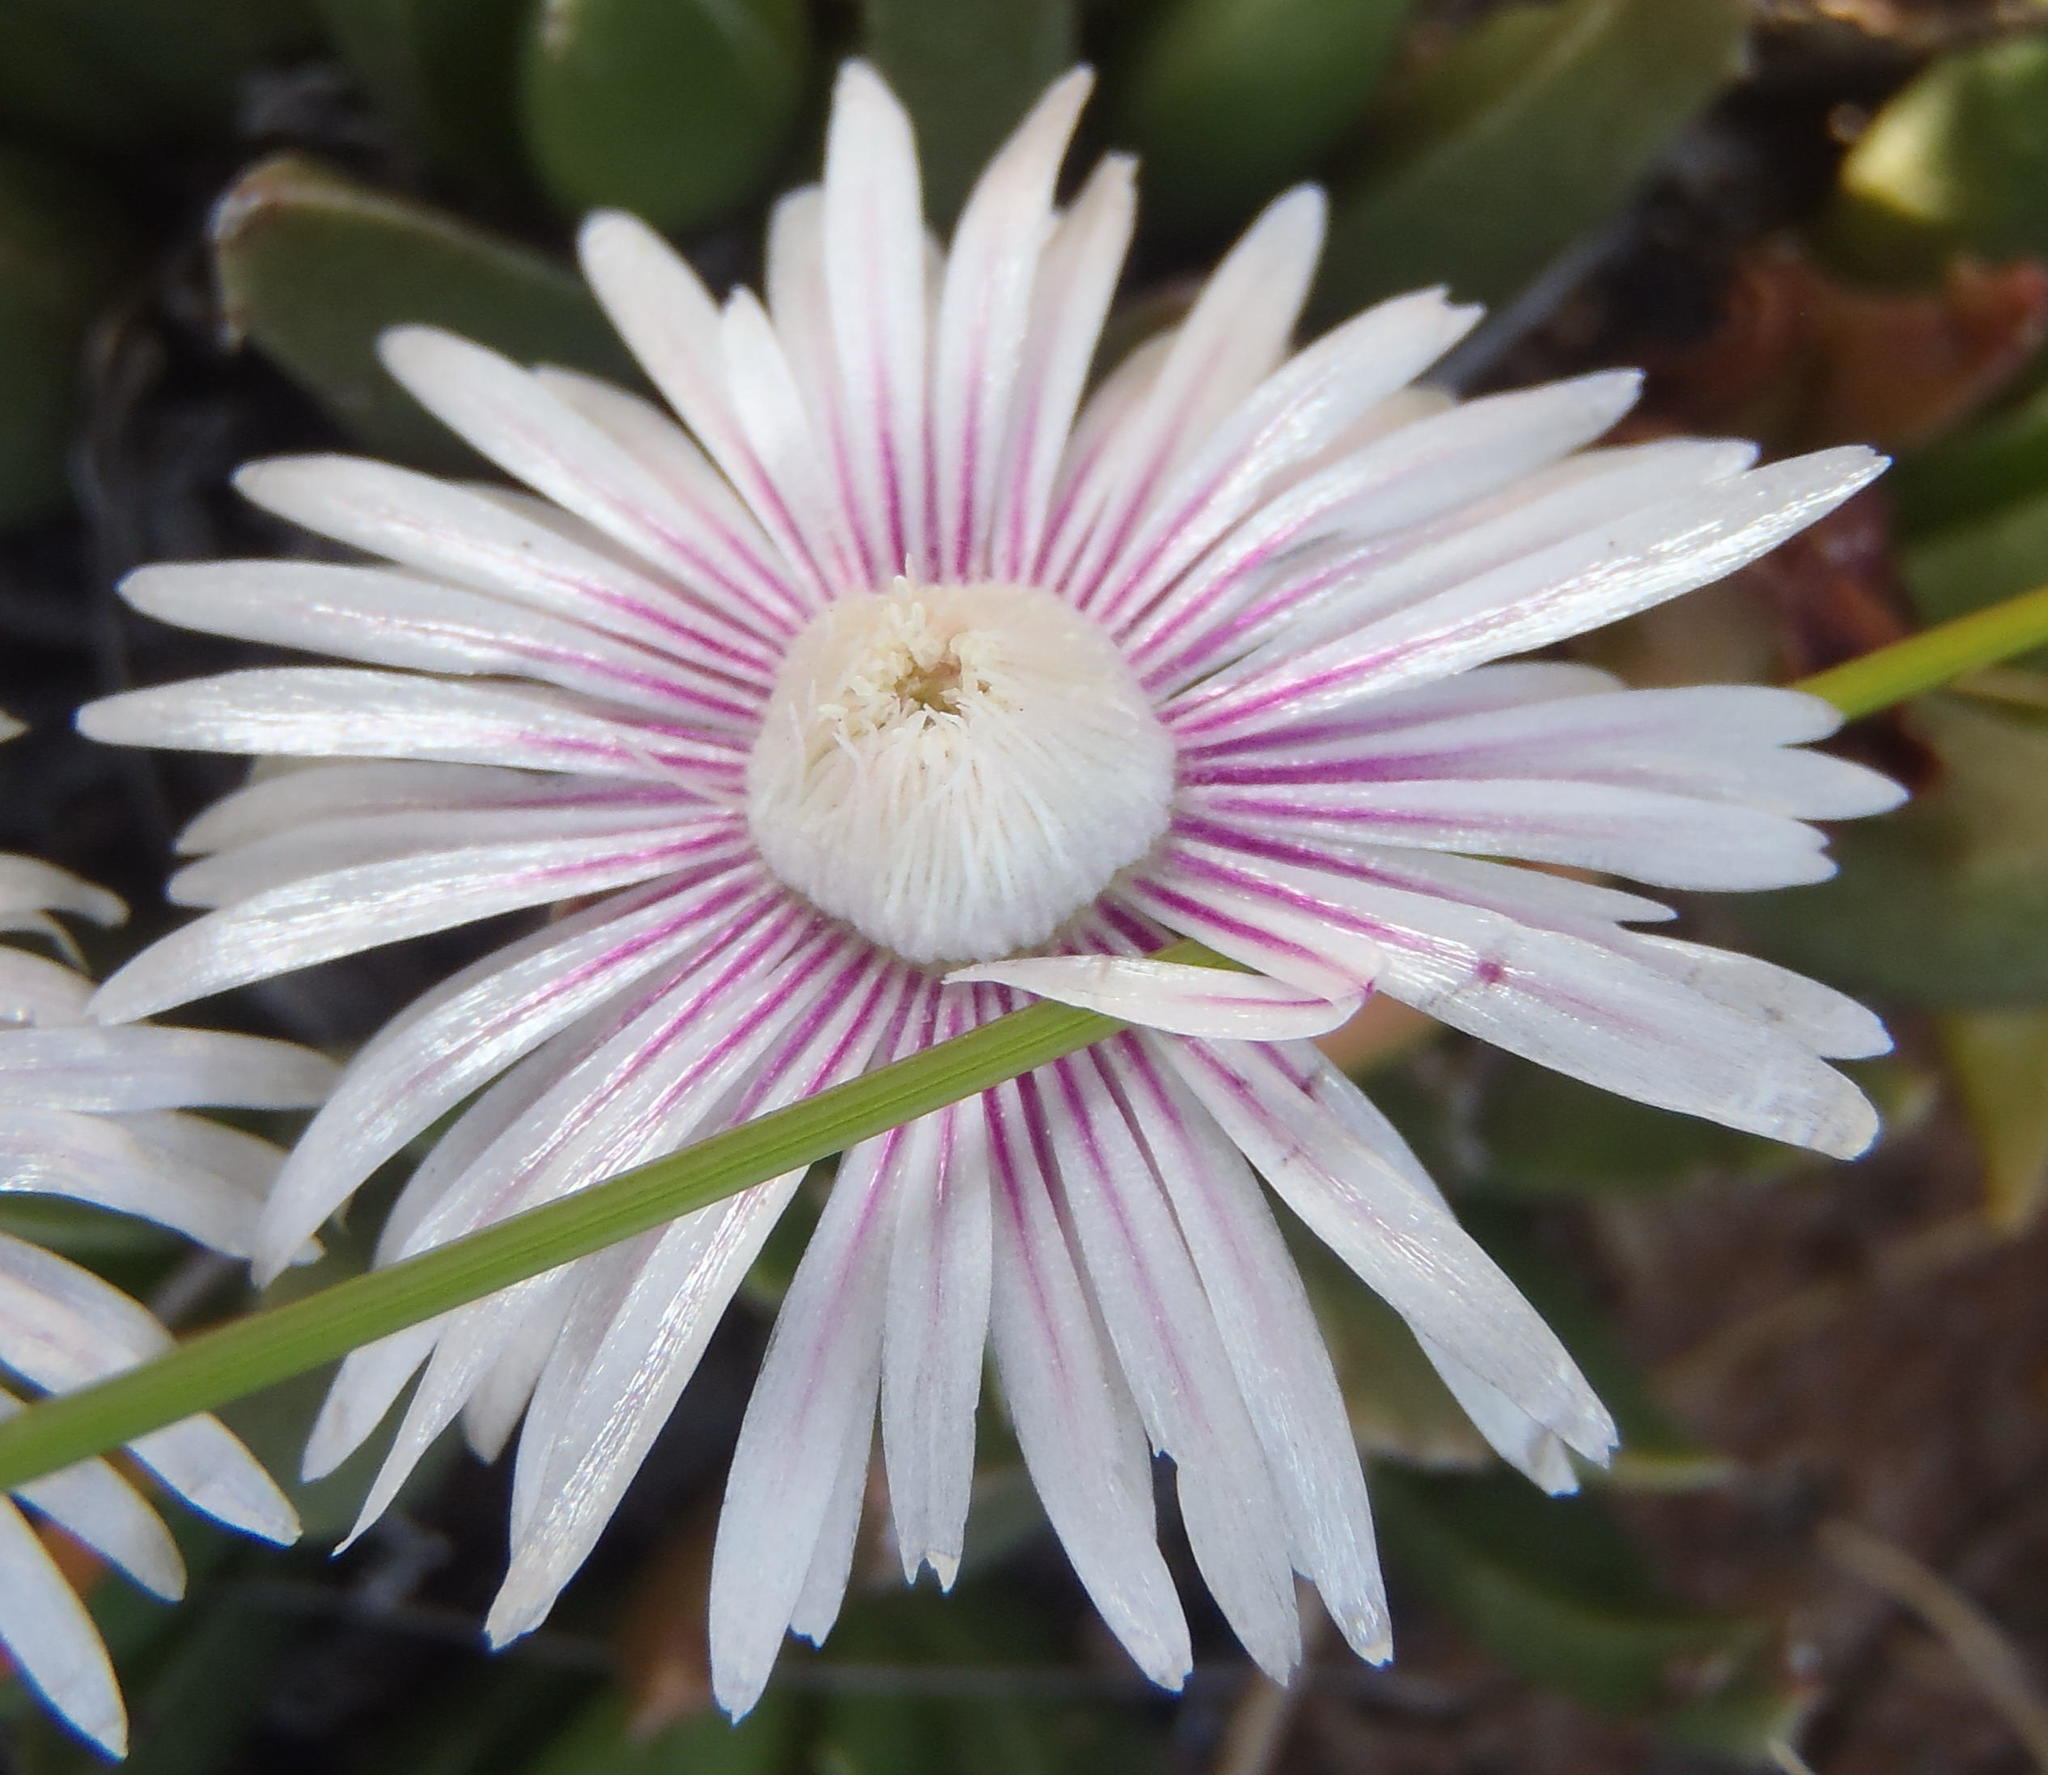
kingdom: Plantae
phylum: Tracheophyta
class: Magnoliopsida
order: Caryophyllales
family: Aizoaceae
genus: Acrodon
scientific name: Acrodon bellidiflorus
